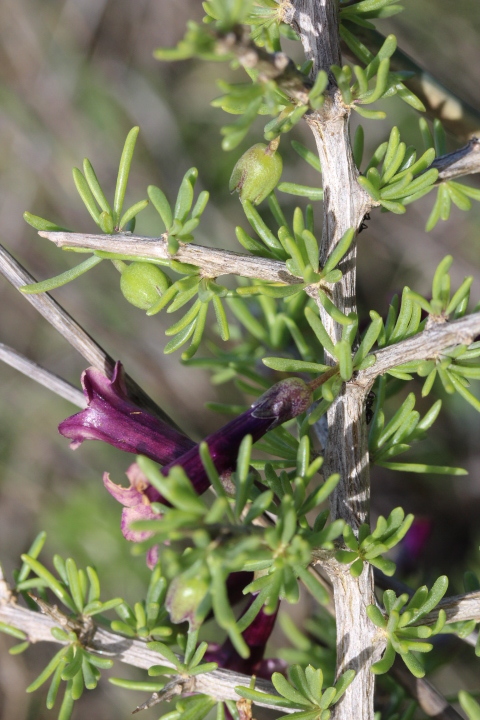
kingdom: Plantae
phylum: Tracheophyta
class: Magnoliopsida
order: Solanales
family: Solanaceae
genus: Lycium
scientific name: Lycium afrum
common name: Kaffir boxthorn
